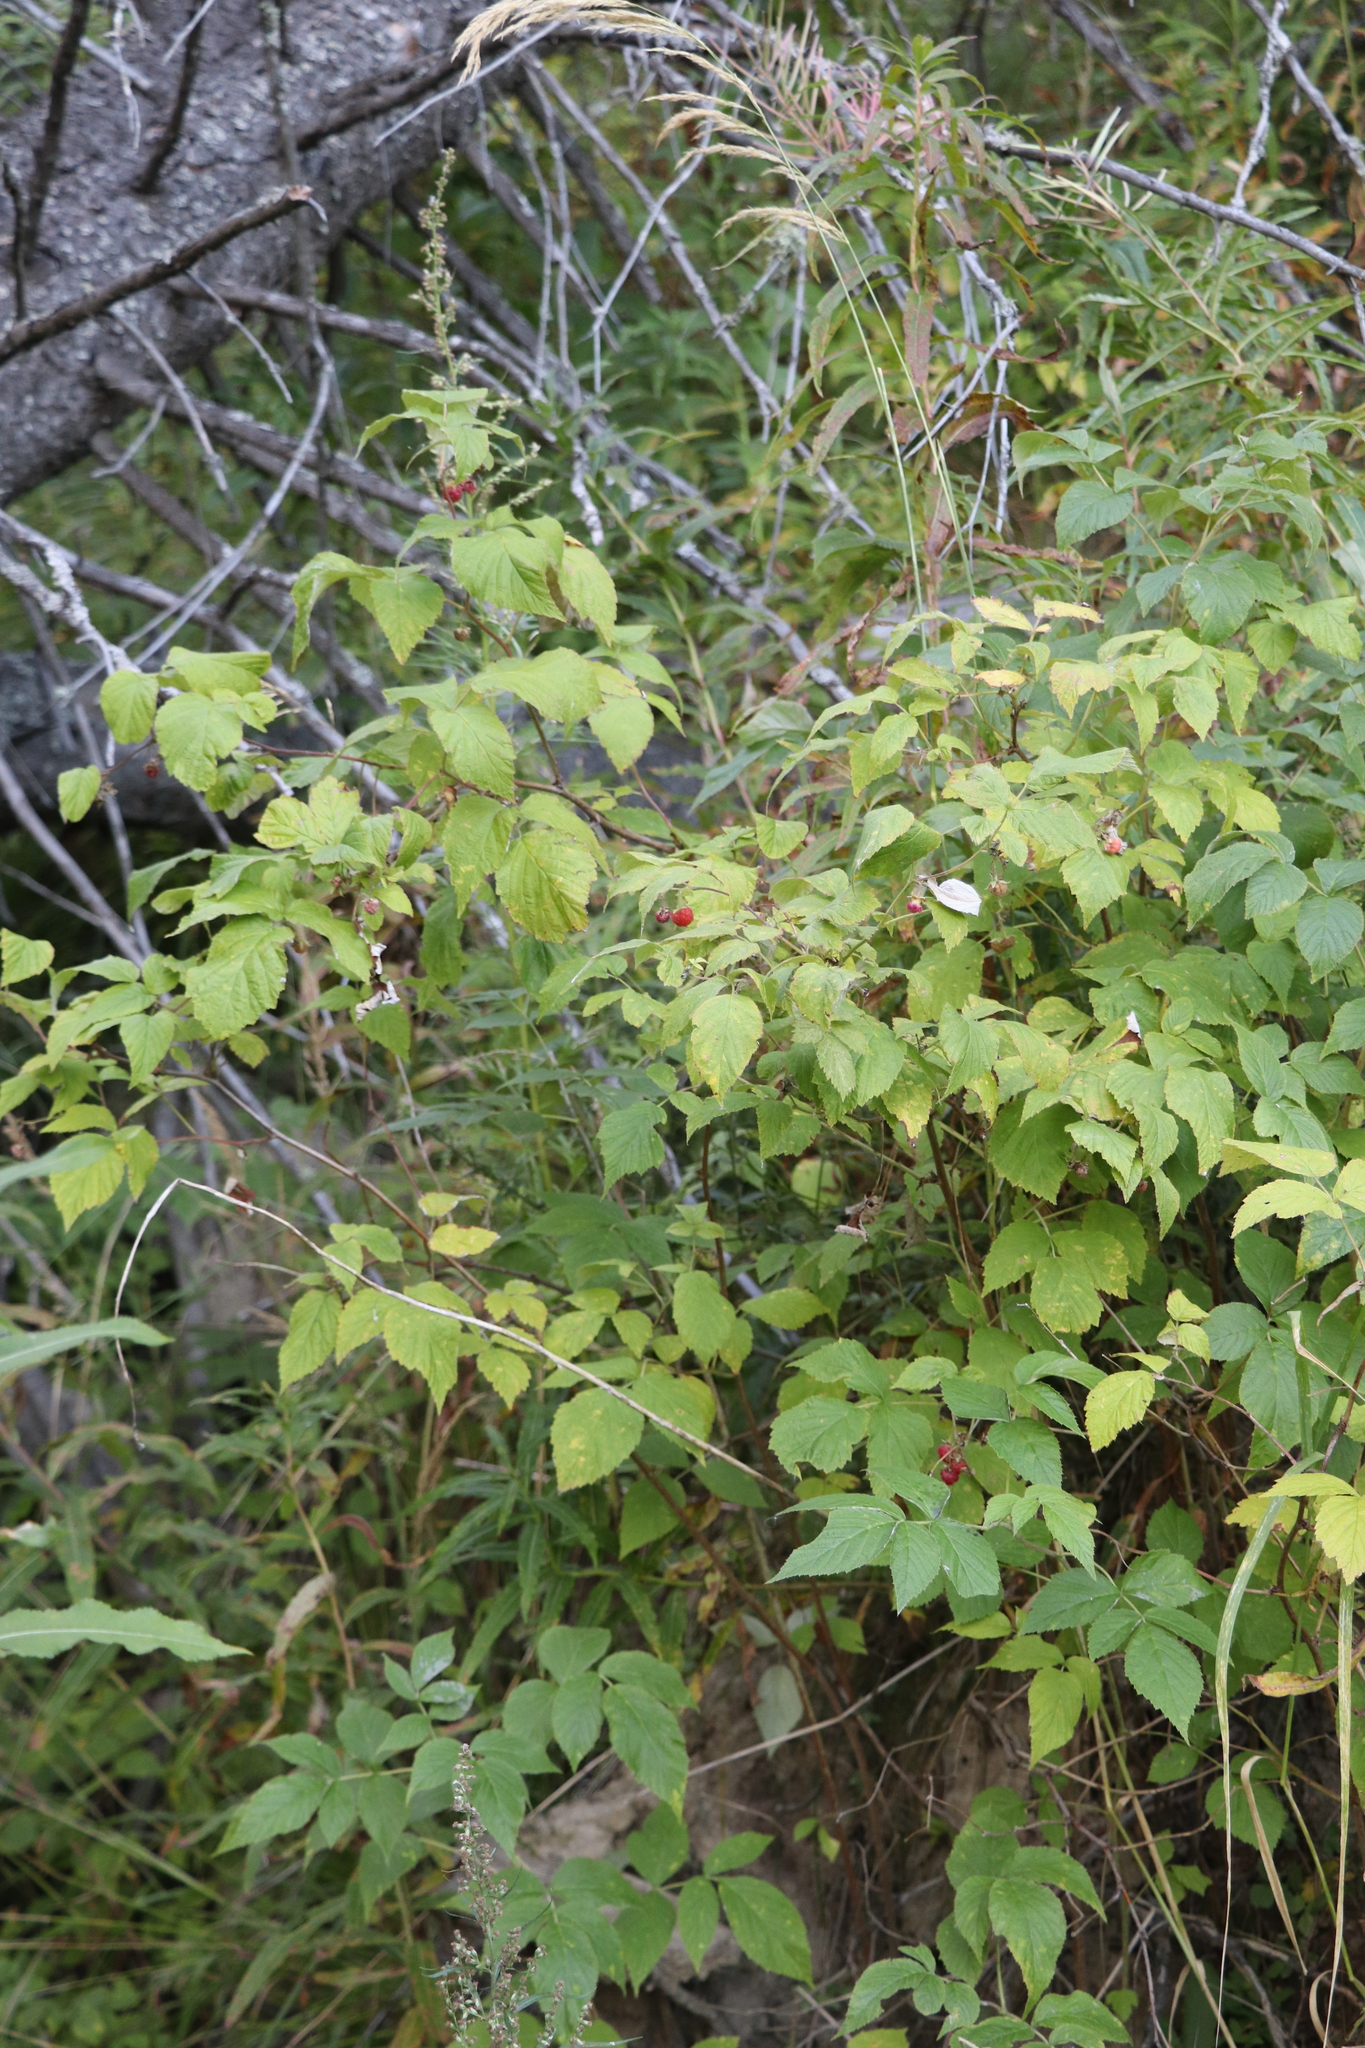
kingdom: Plantae
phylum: Tracheophyta
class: Magnoliopsida
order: Rosales
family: Rosaceae
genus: Rubus
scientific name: Rubus sachalinensis
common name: Red raspberry
